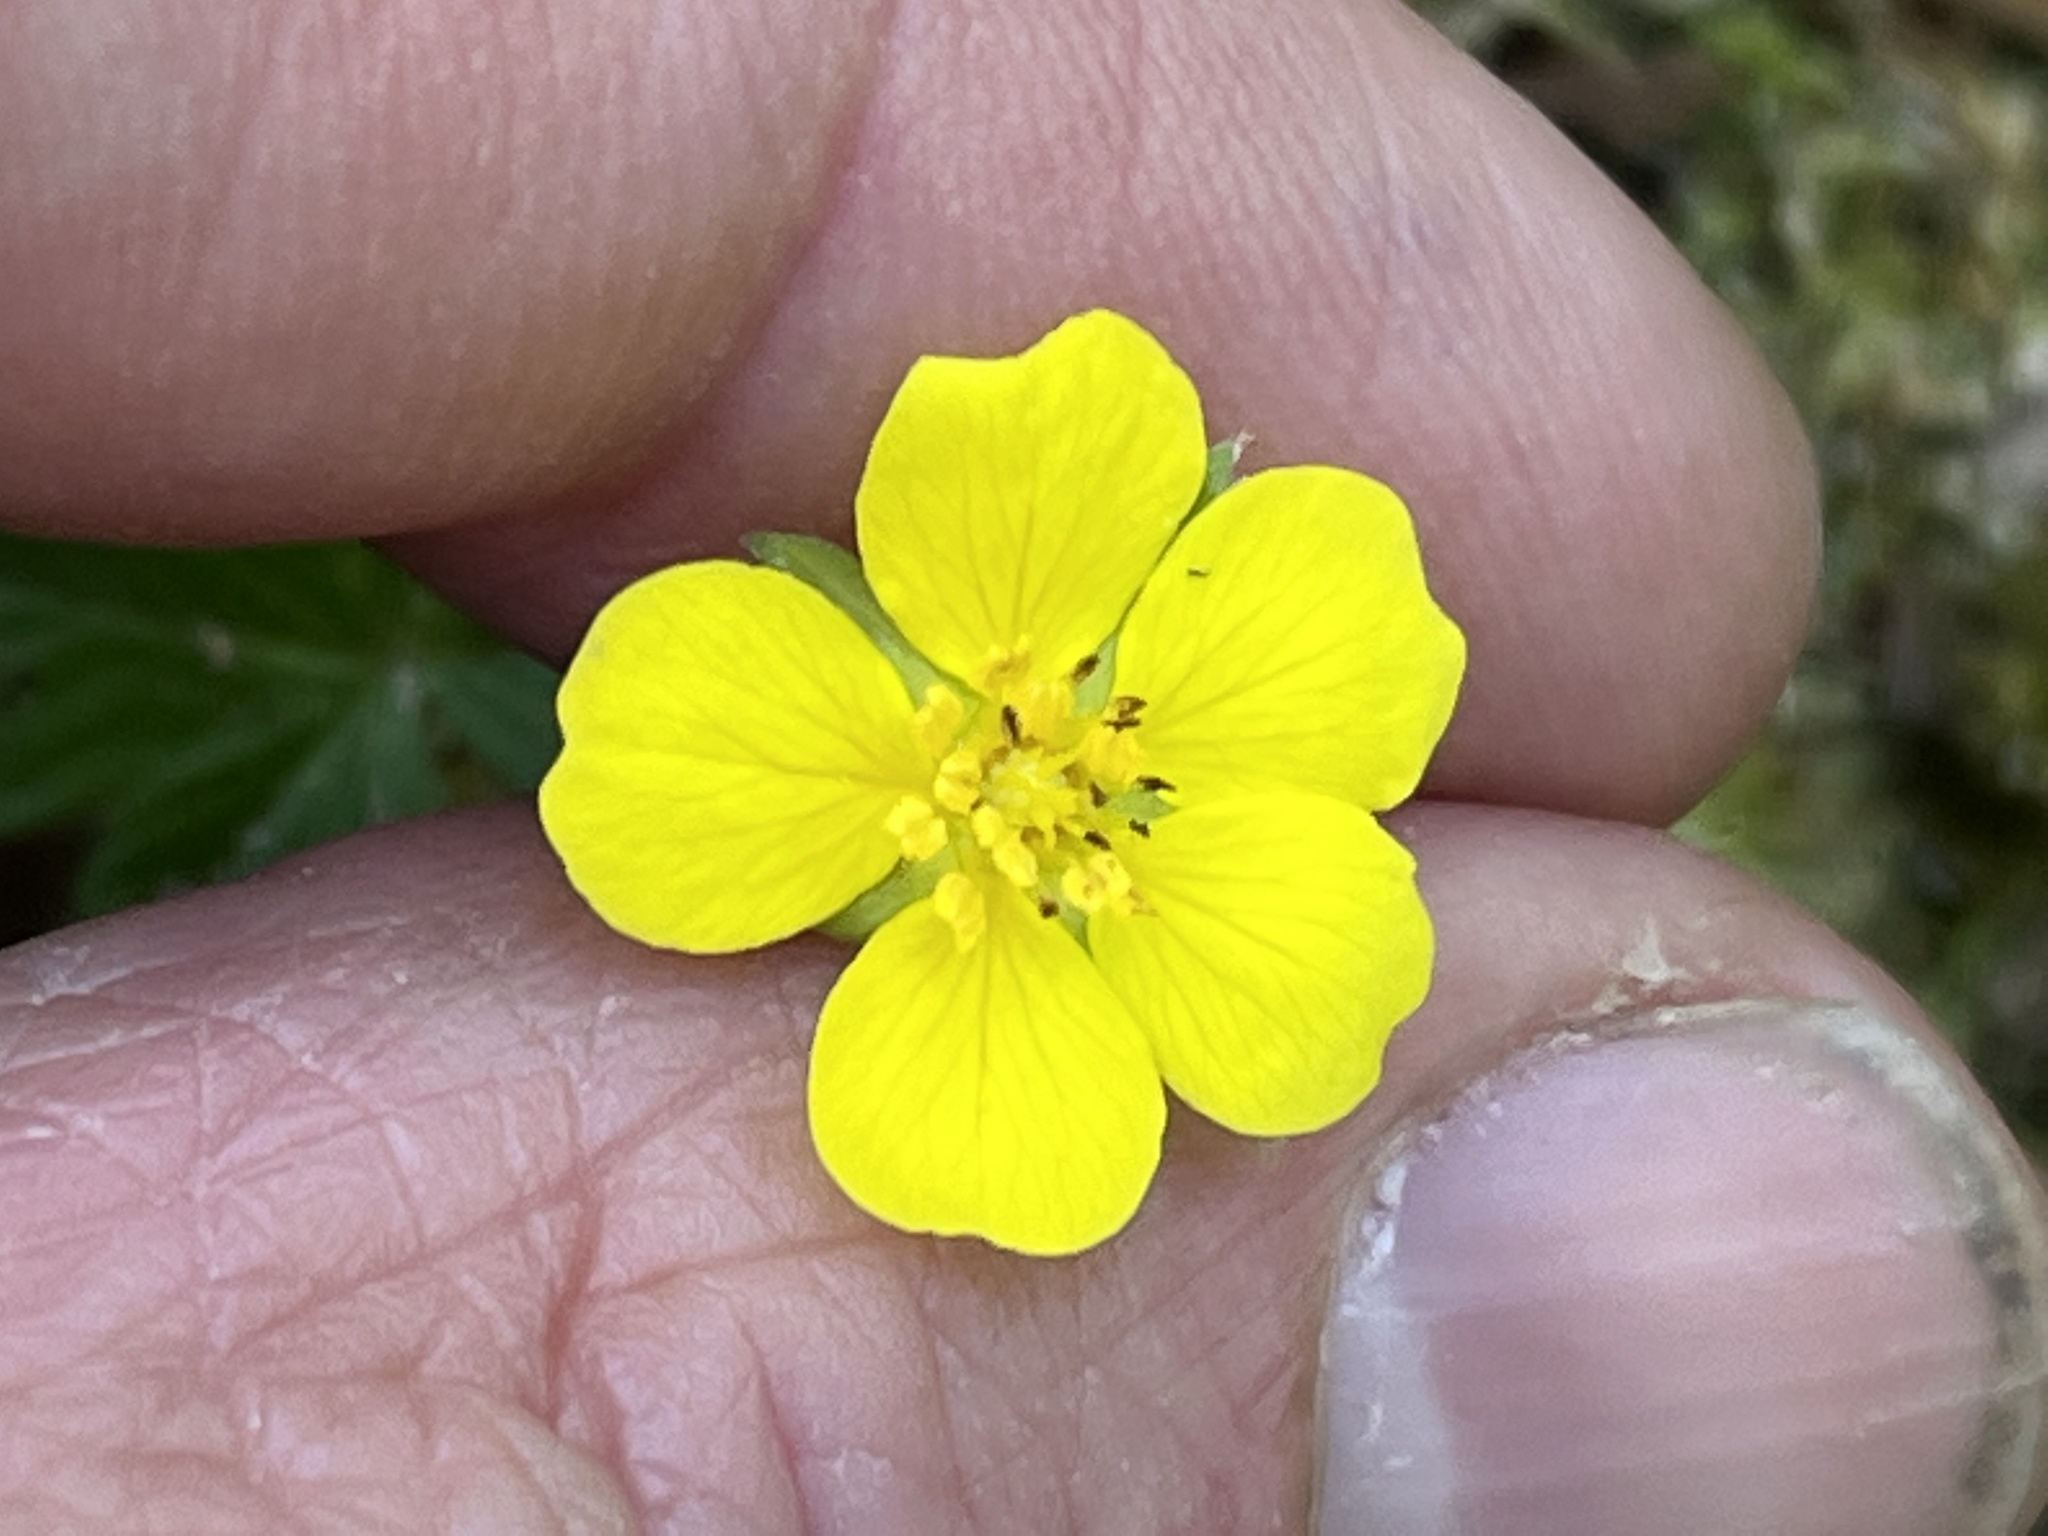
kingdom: Plantae
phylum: Tracheophyta
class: Magnoliopsida
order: Rosales
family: Rosaceae
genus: Potentilla
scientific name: Potentilla canadensis
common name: Canada cinquefoil
